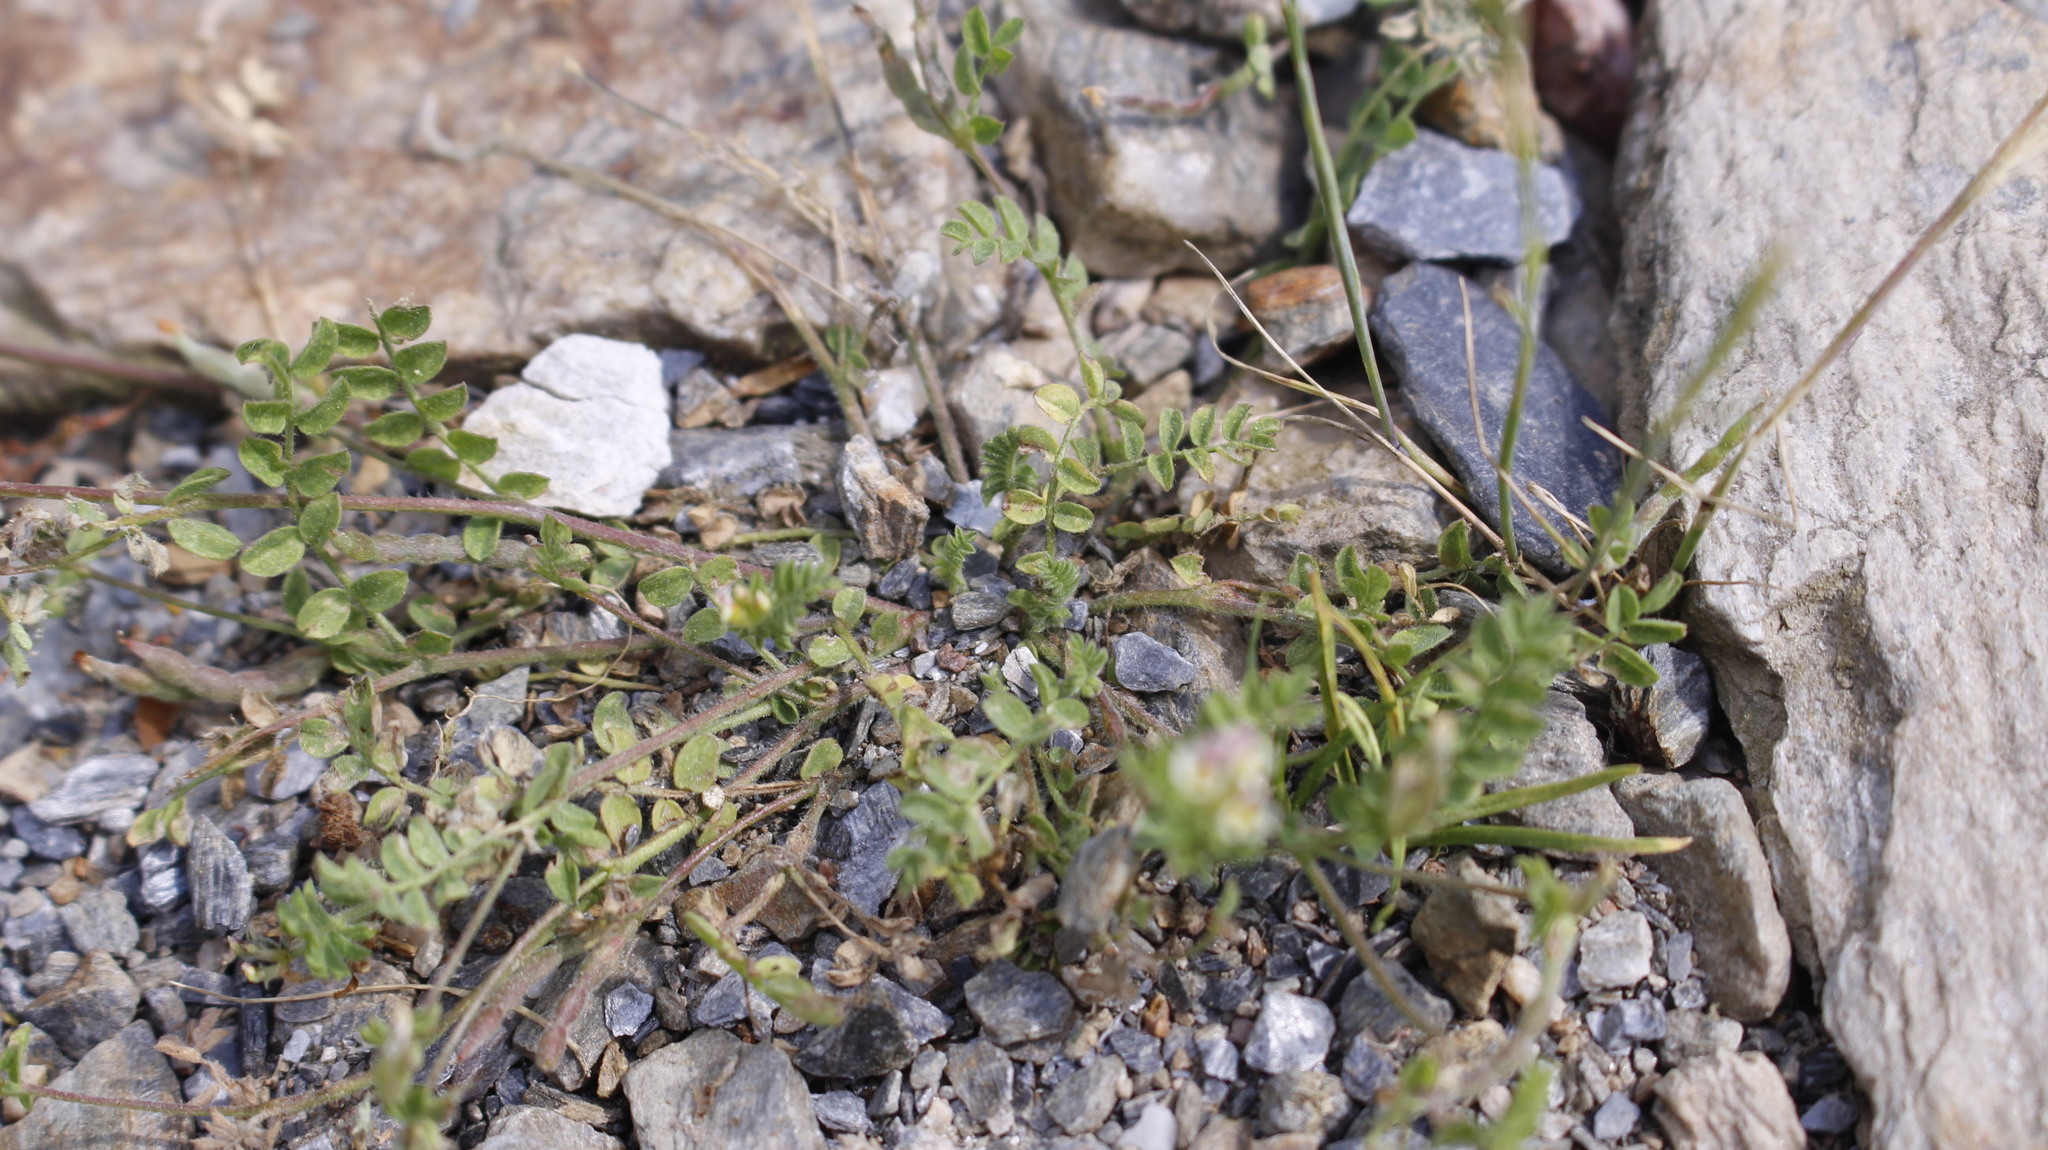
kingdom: Plantae
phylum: Tracheophyta
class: Magnoliopsida
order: Fabales
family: Fabaceae
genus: Ornithopus
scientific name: Ornithopus perpusillus
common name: Bird's-foot
